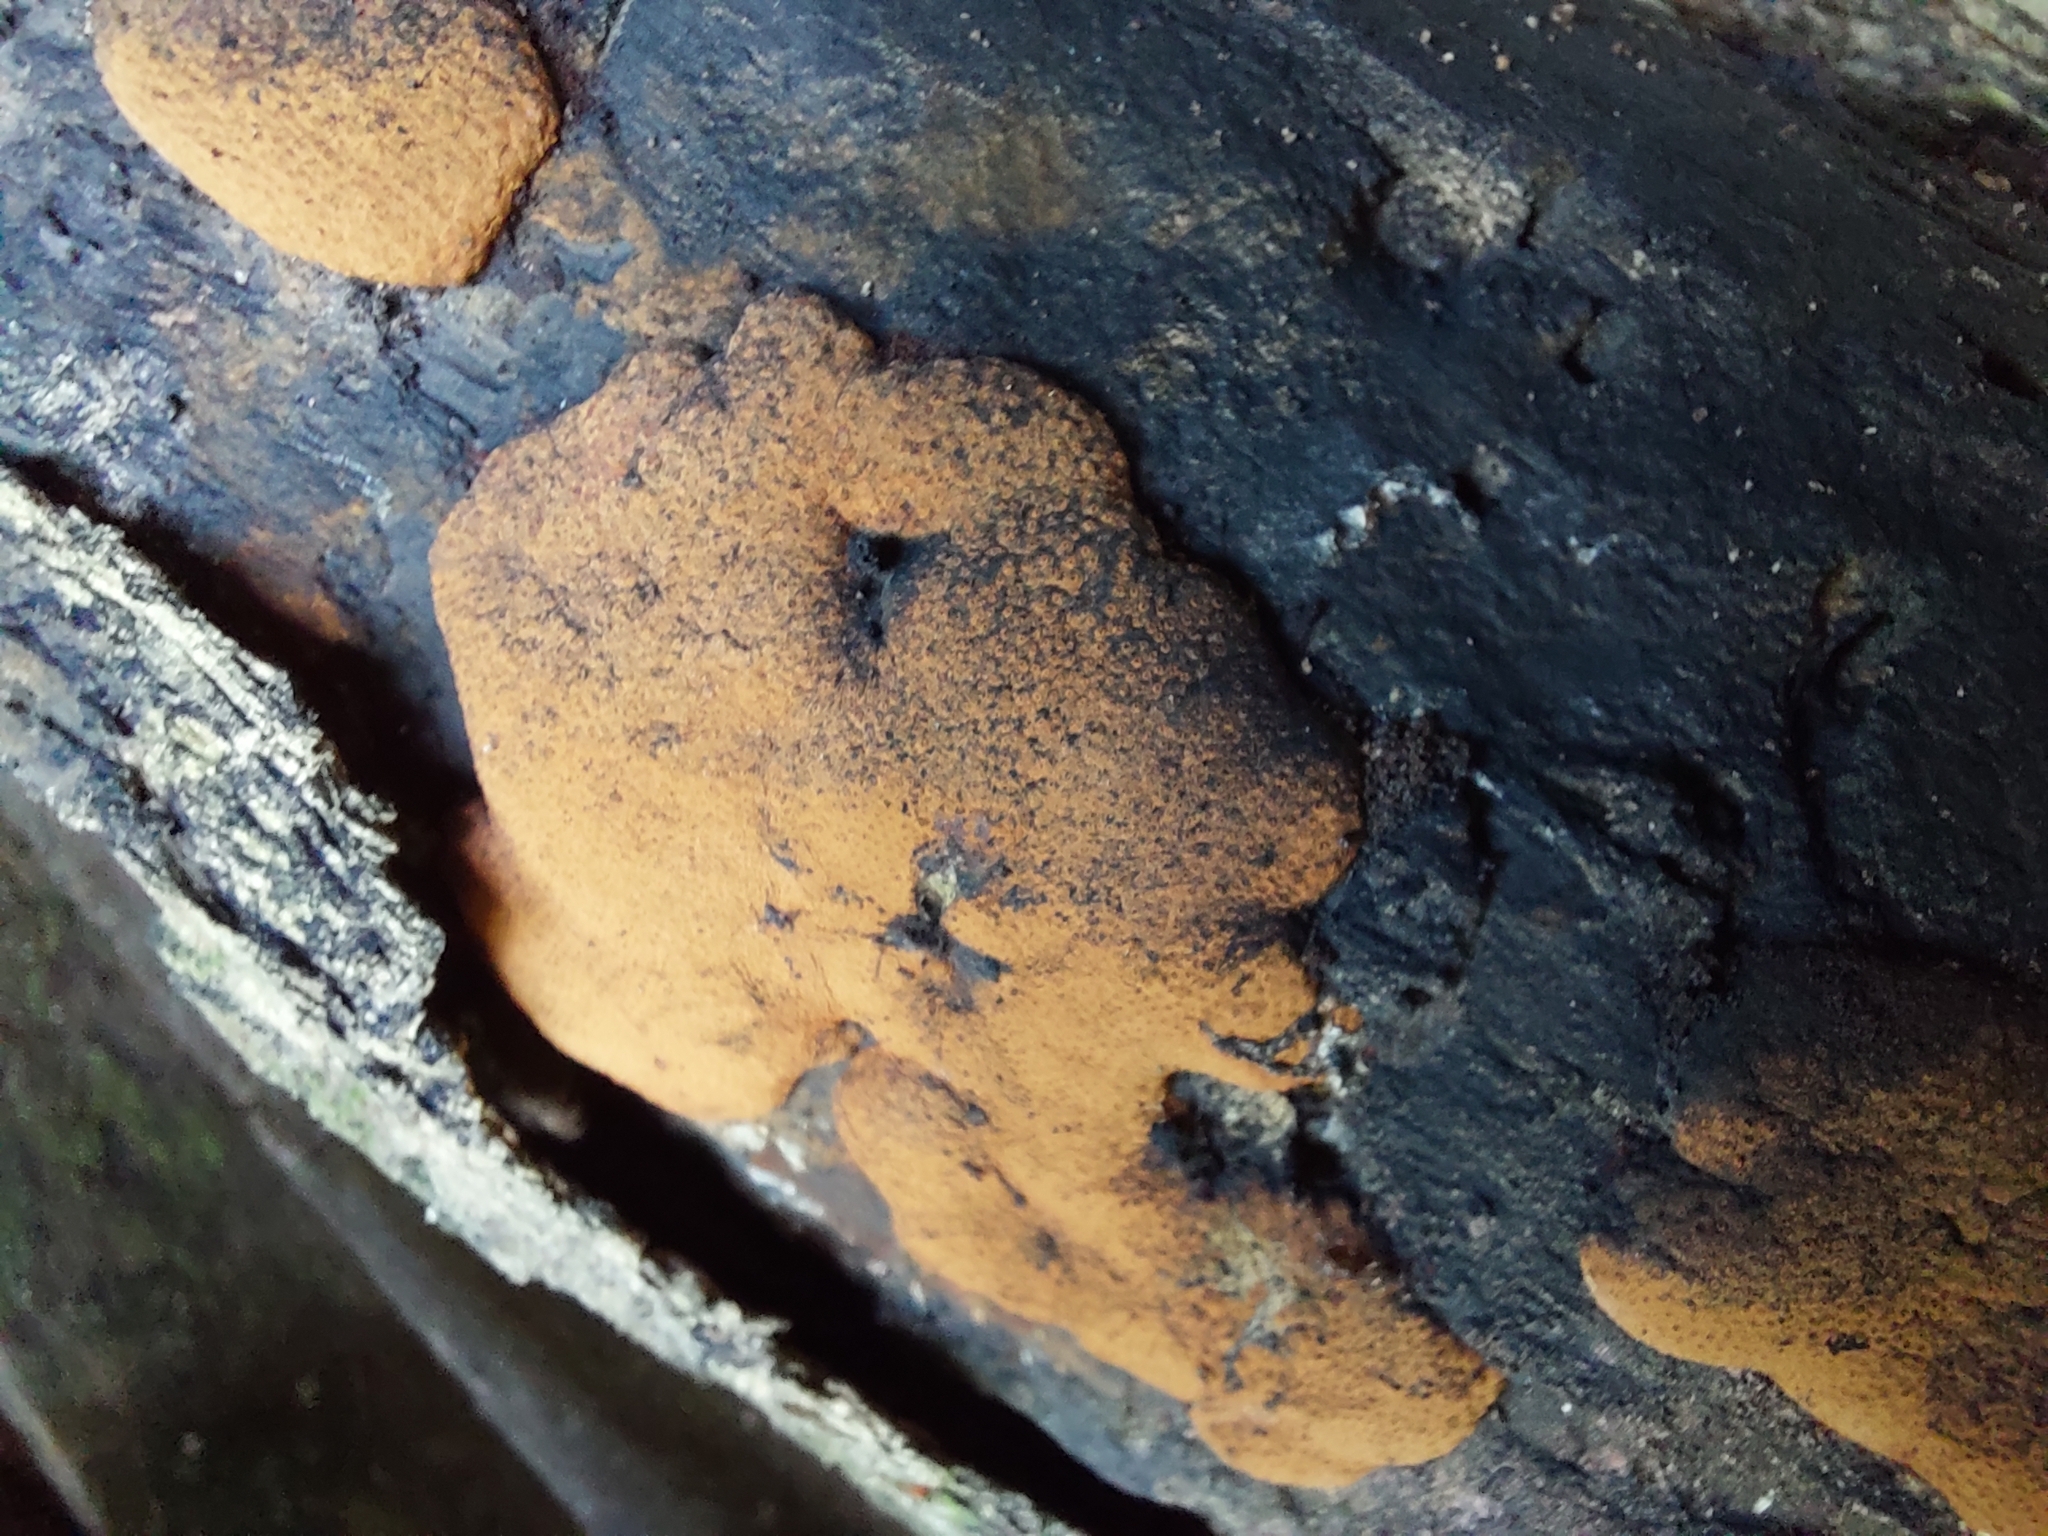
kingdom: Fungi
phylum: Ascomycota
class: Sordariomycetes
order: Xylariales
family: Hypoxylaceae
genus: Hypoxylon
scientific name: Hypoxylon rubiginosum
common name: Rusty woodwart
